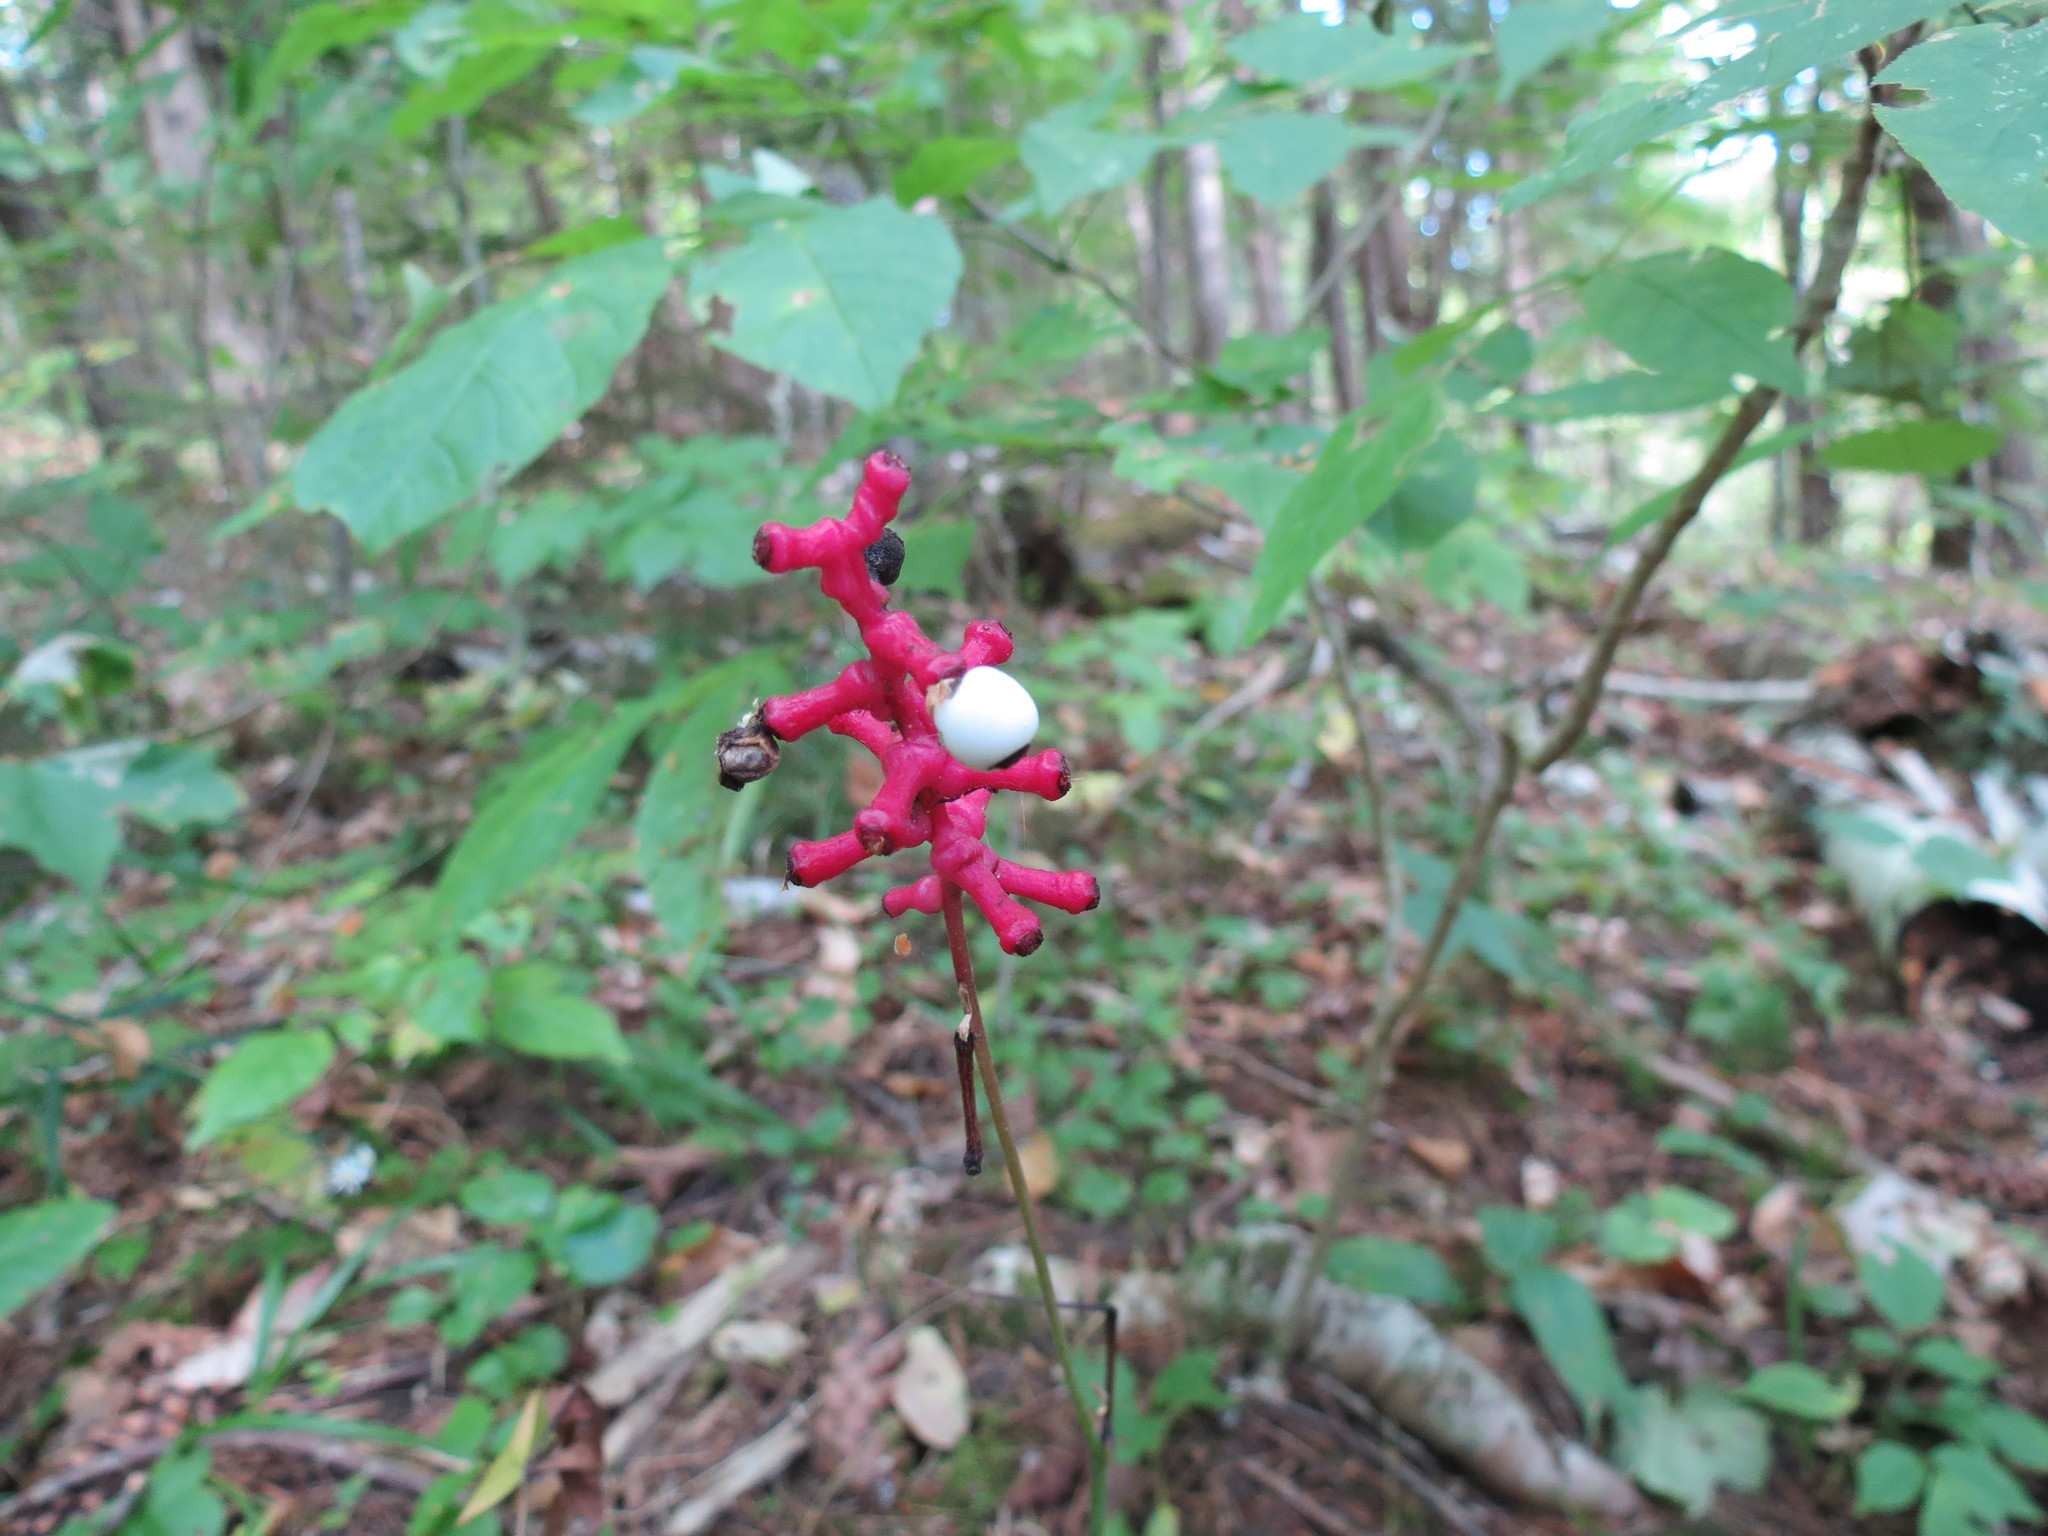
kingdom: Plantae
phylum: Tracheophyta
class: Magnoliopsida
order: Ranunculales
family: Ranunculaceae
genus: Actaea
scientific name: Actaea pachypoda
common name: Doll's-eyes
